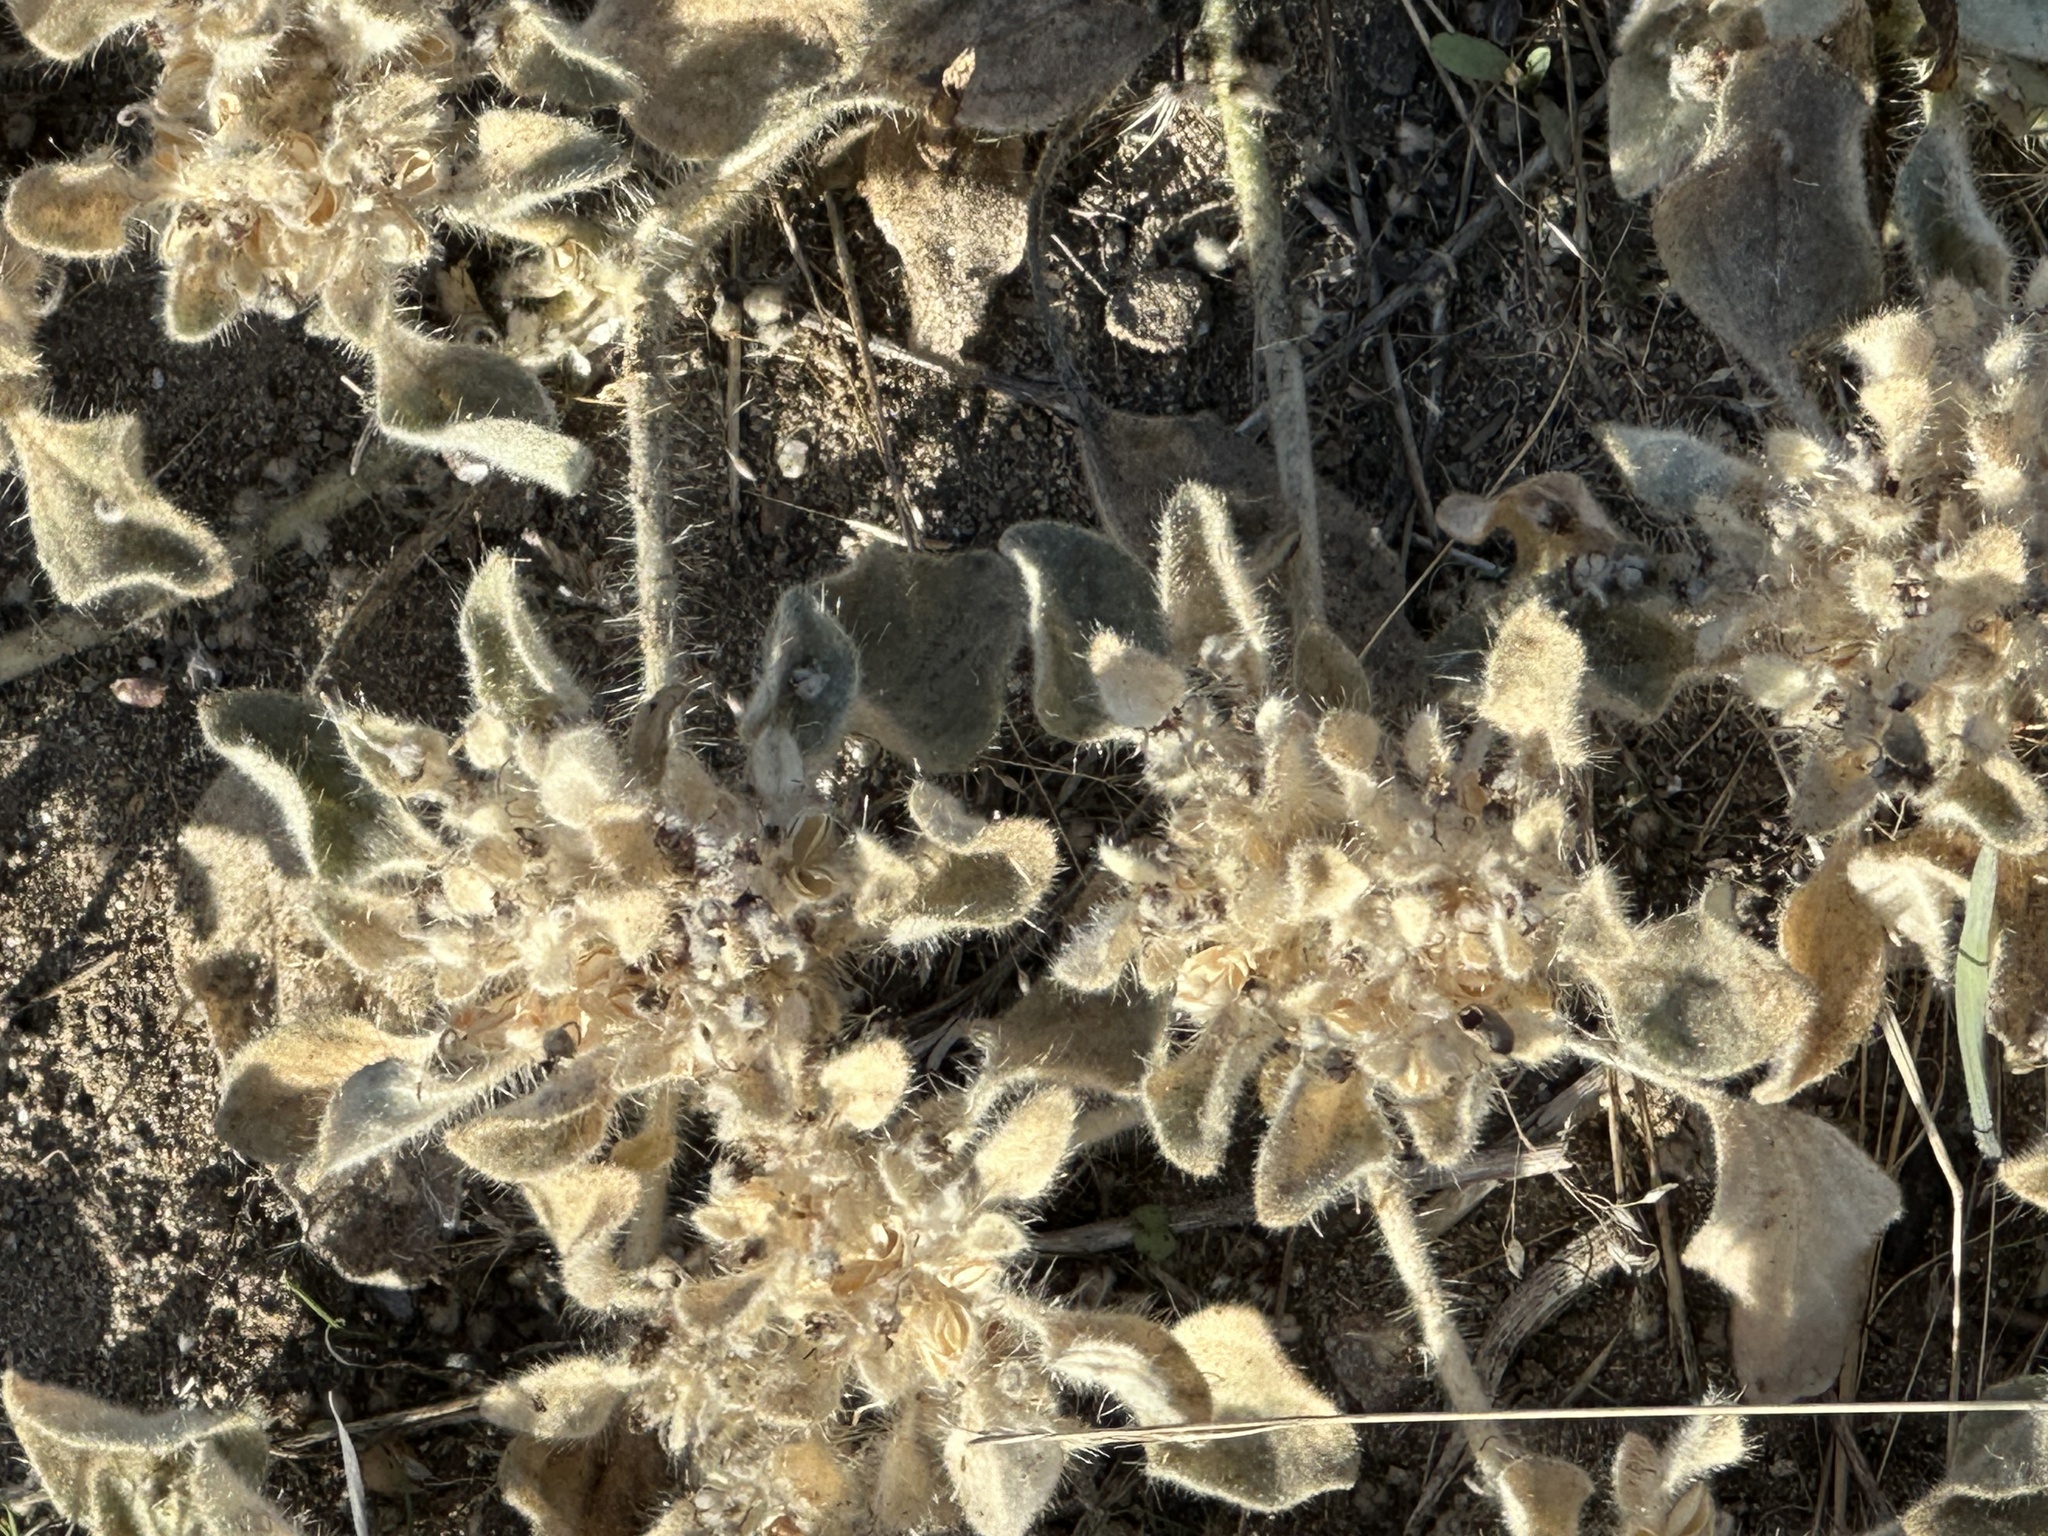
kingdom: Plantae
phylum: Tracheophyta
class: Magnoliopsida
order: Malpighiales
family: Euphorbiaceae
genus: Croton
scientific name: Croton setiger
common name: Dove weed
